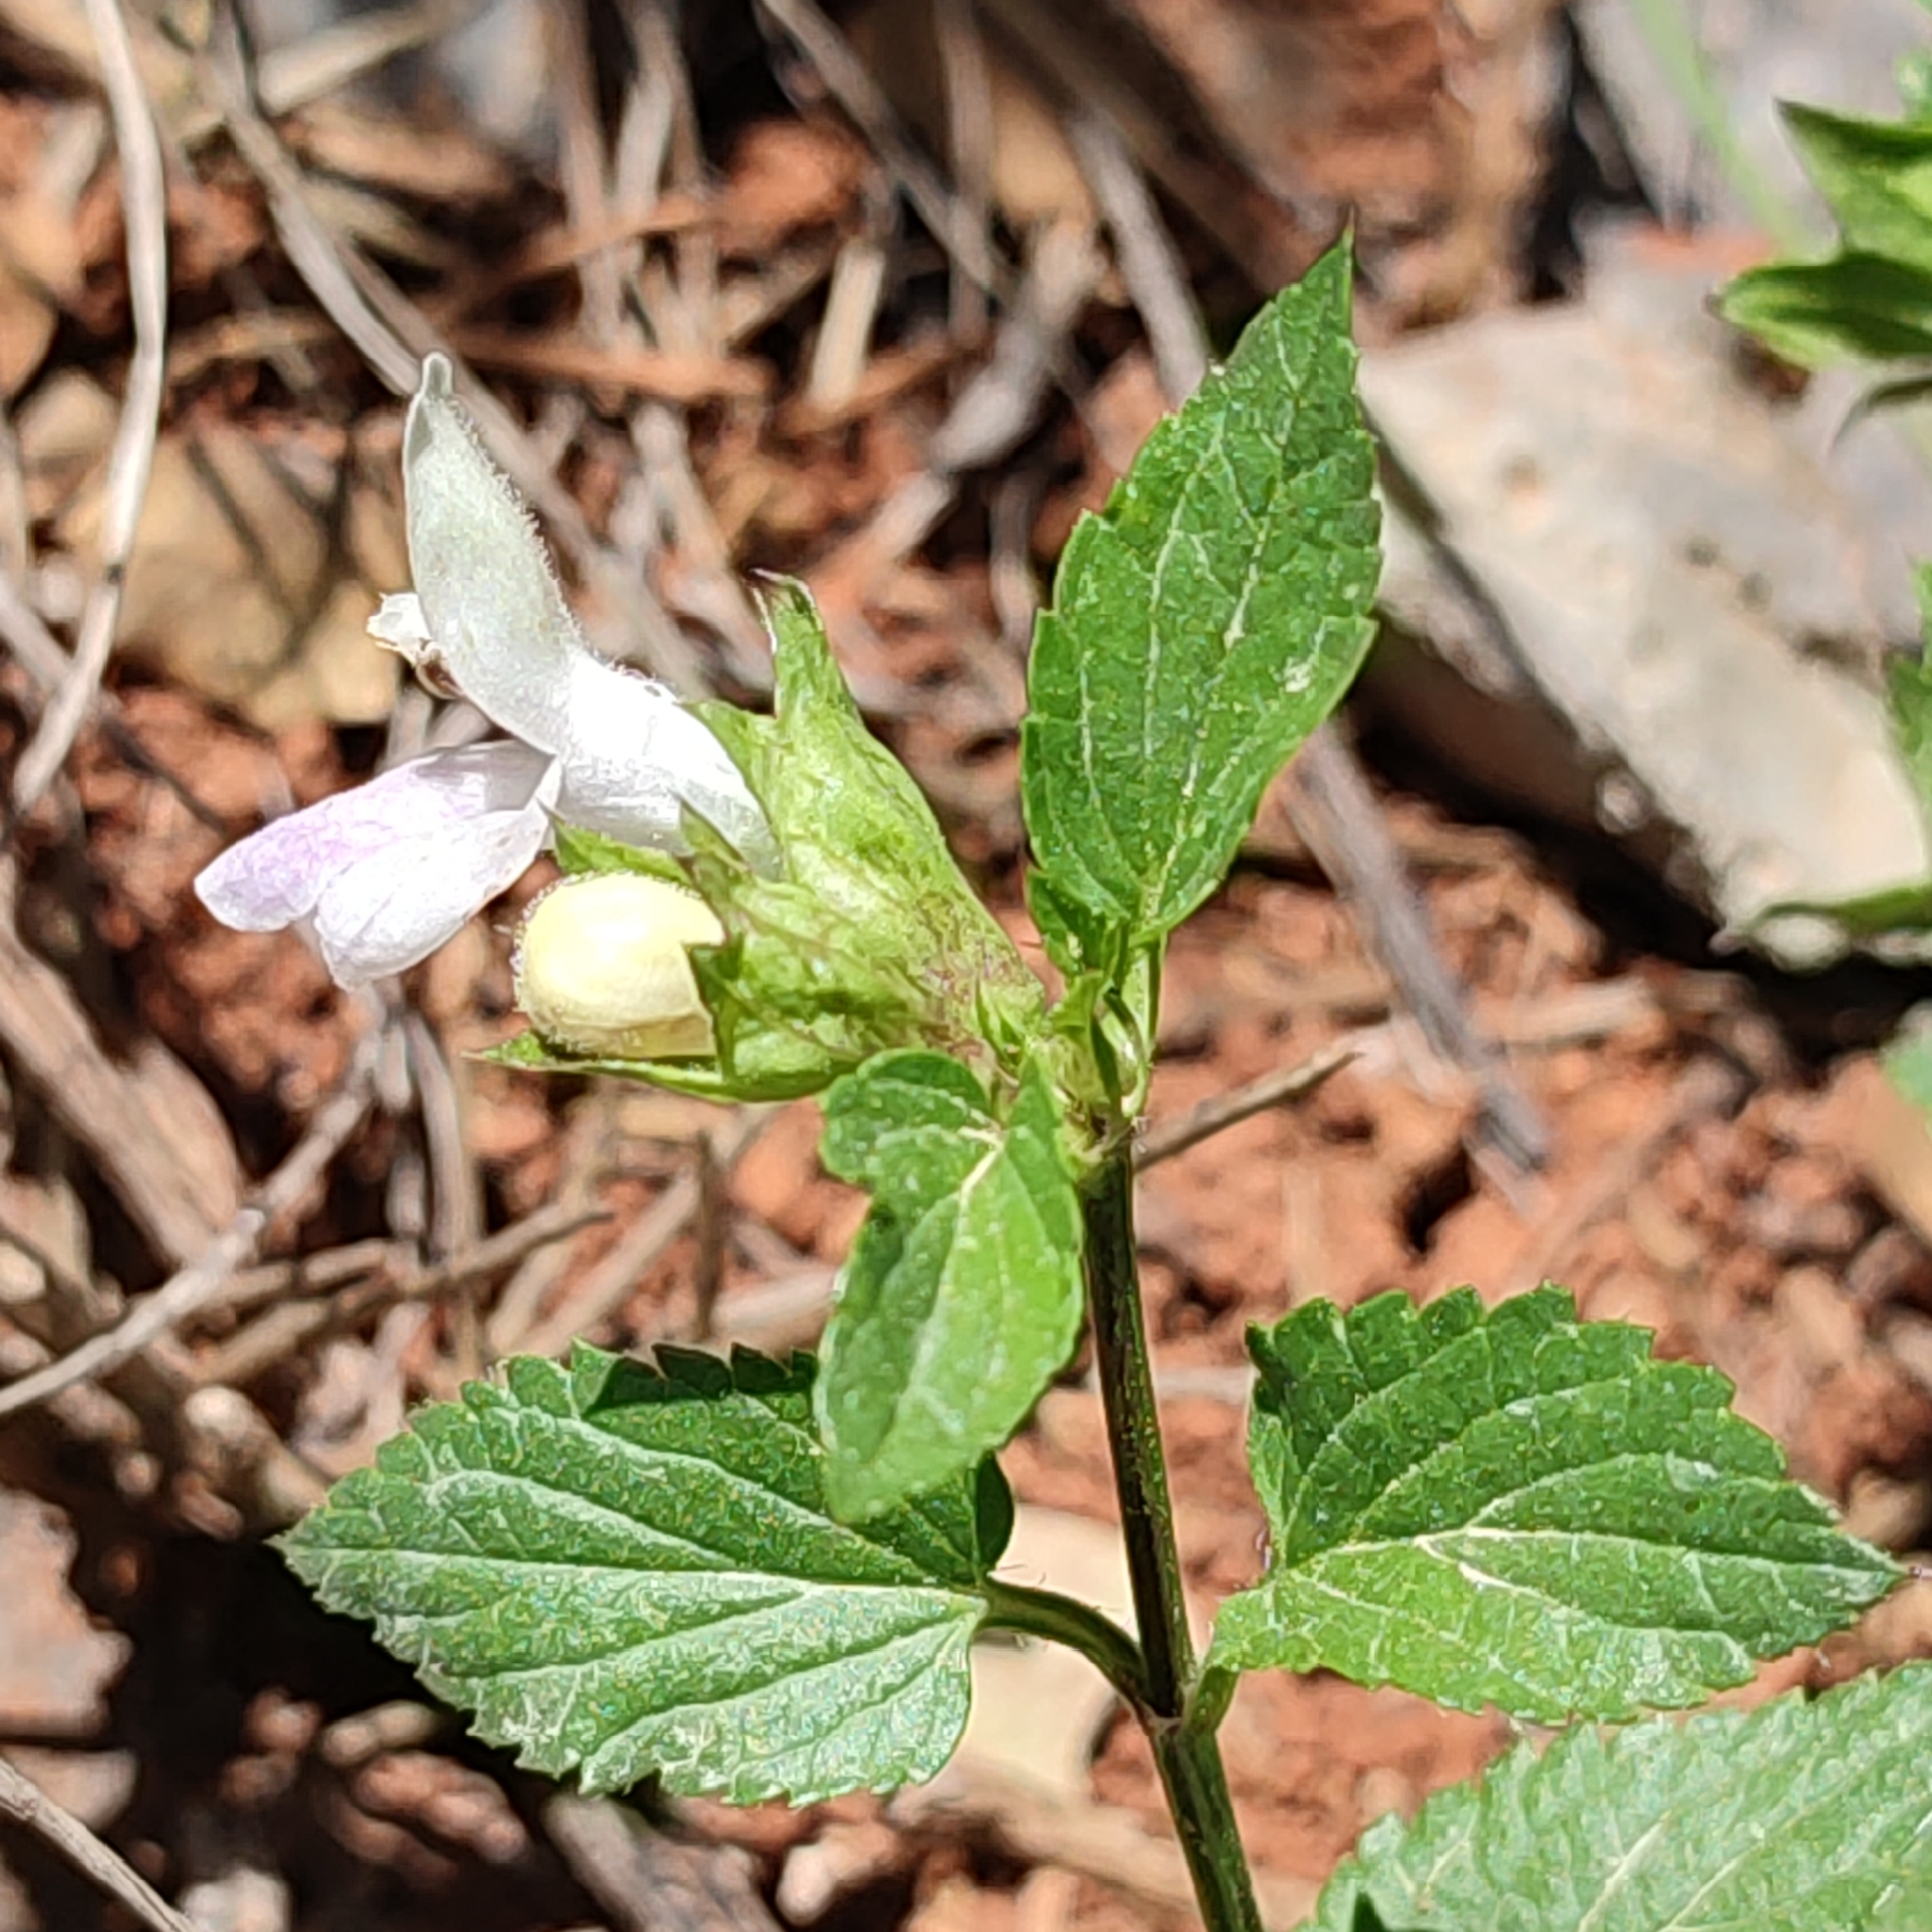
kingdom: Plantae
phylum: Tracheophyta
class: Magnoliopsida
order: Lamiales
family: Lamiaceae
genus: Prasium
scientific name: Prasium majus
